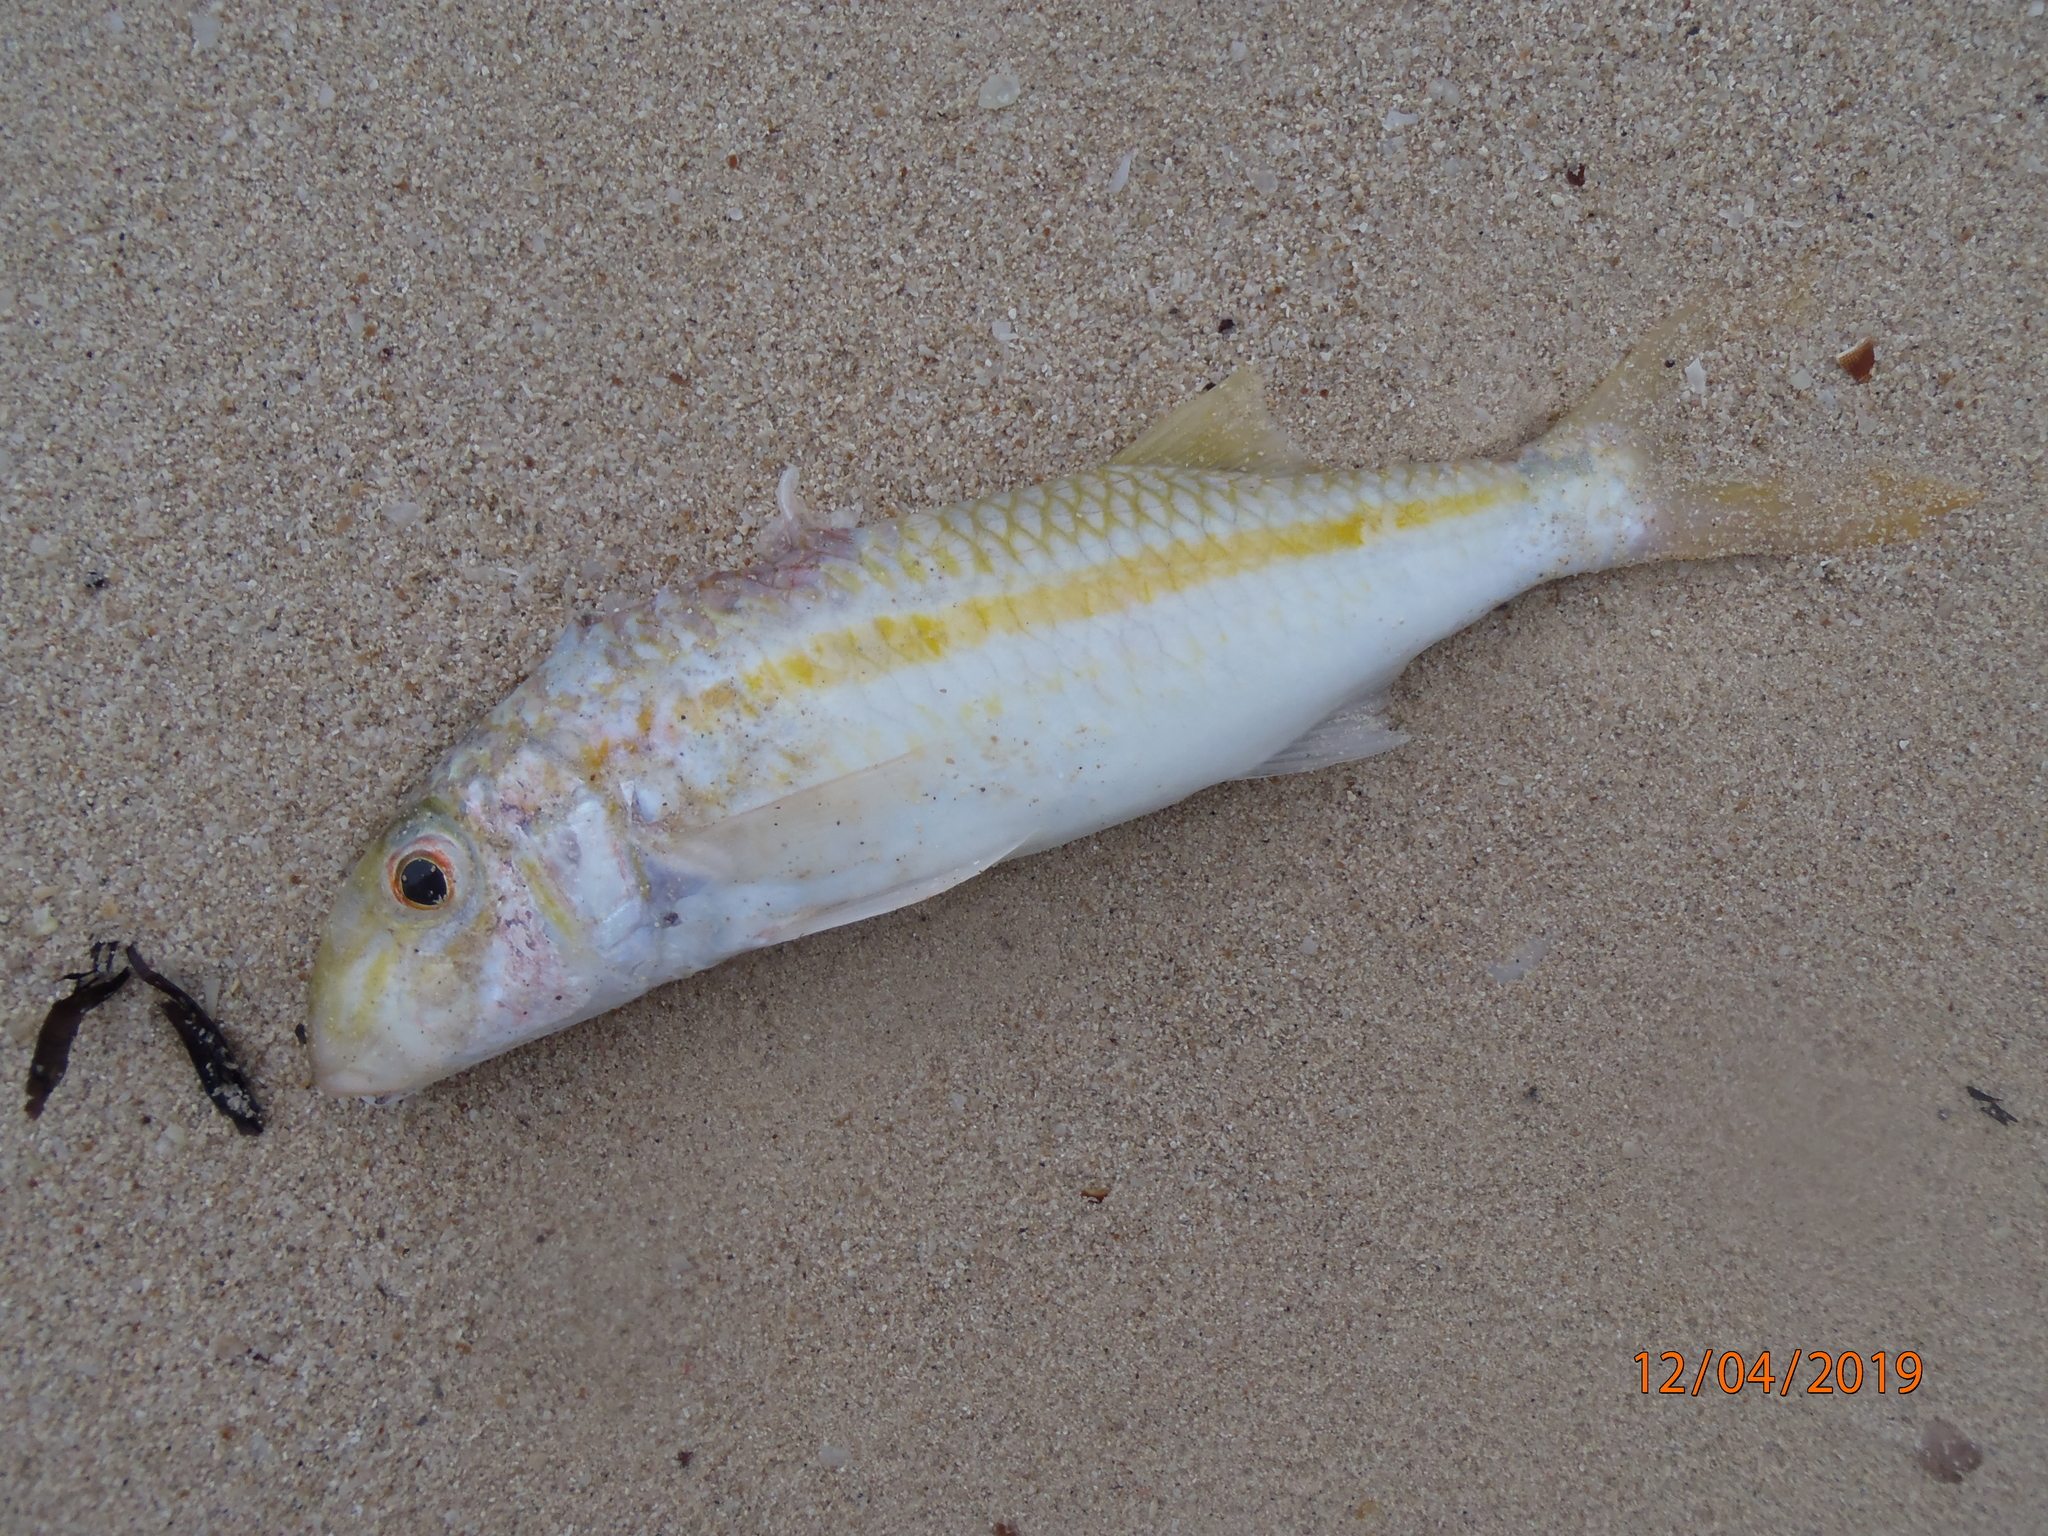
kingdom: Animalia
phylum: Chordata
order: Perciformes
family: Mullidae
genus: Mulloidichthys
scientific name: Mulloidichthys vanicolensis
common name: Yellowfin goatfish
